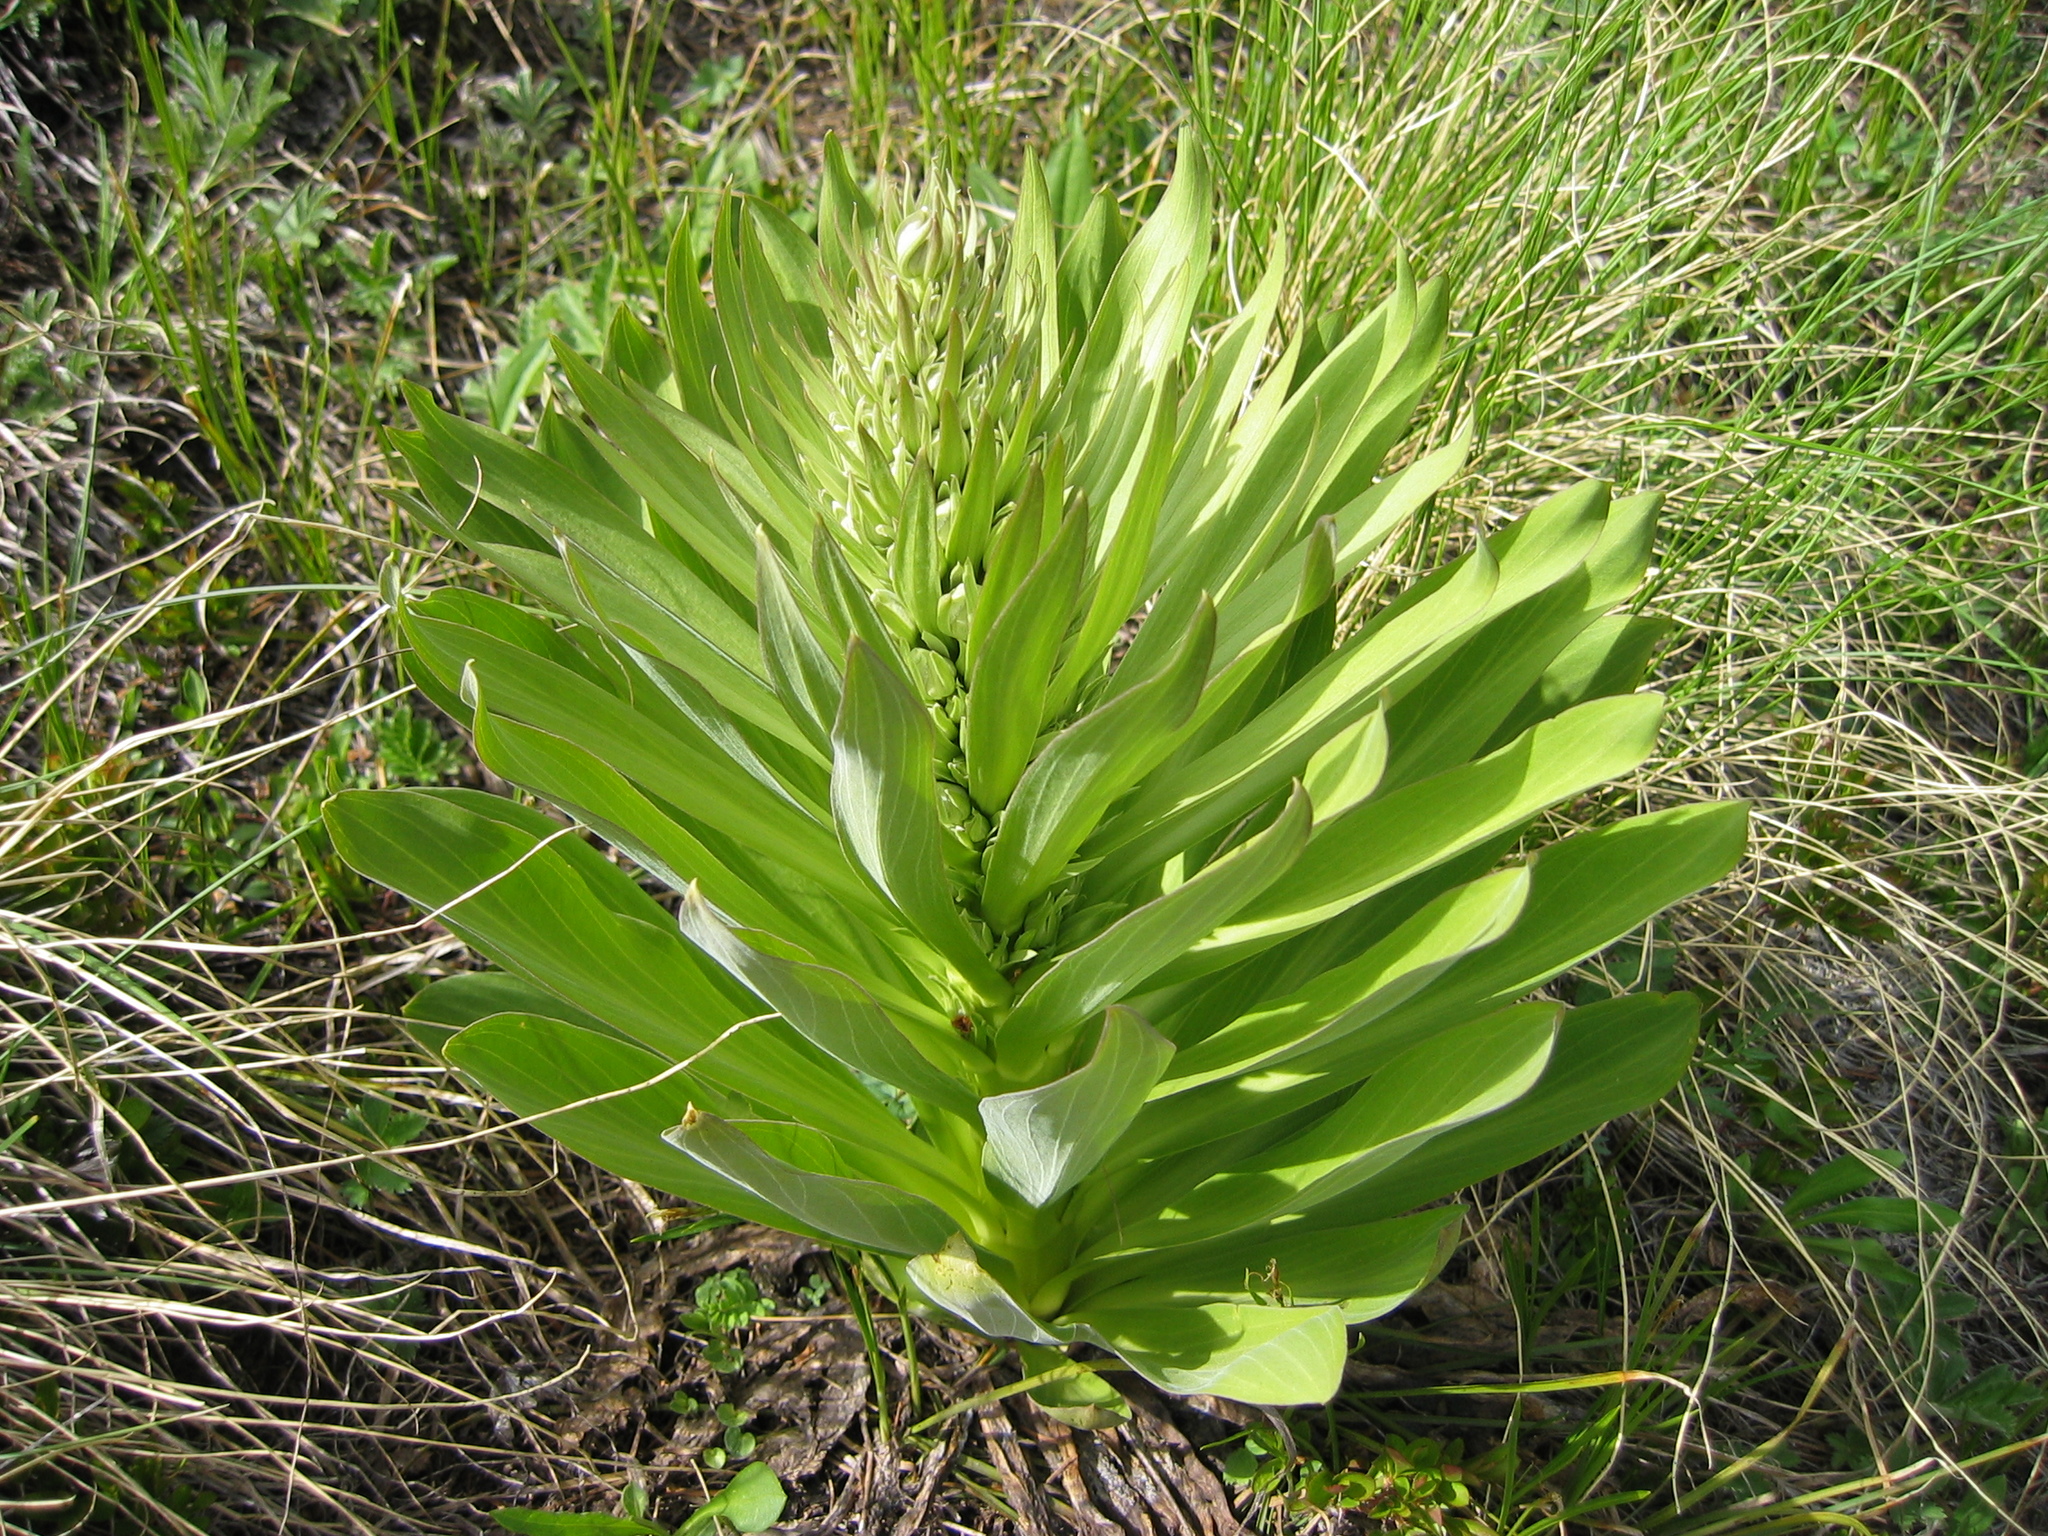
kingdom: Plantae
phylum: Tracheophyta
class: Magnoliopsida
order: Gentianales
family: Gentianaceae
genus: Frasera
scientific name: Frasera speciosa
